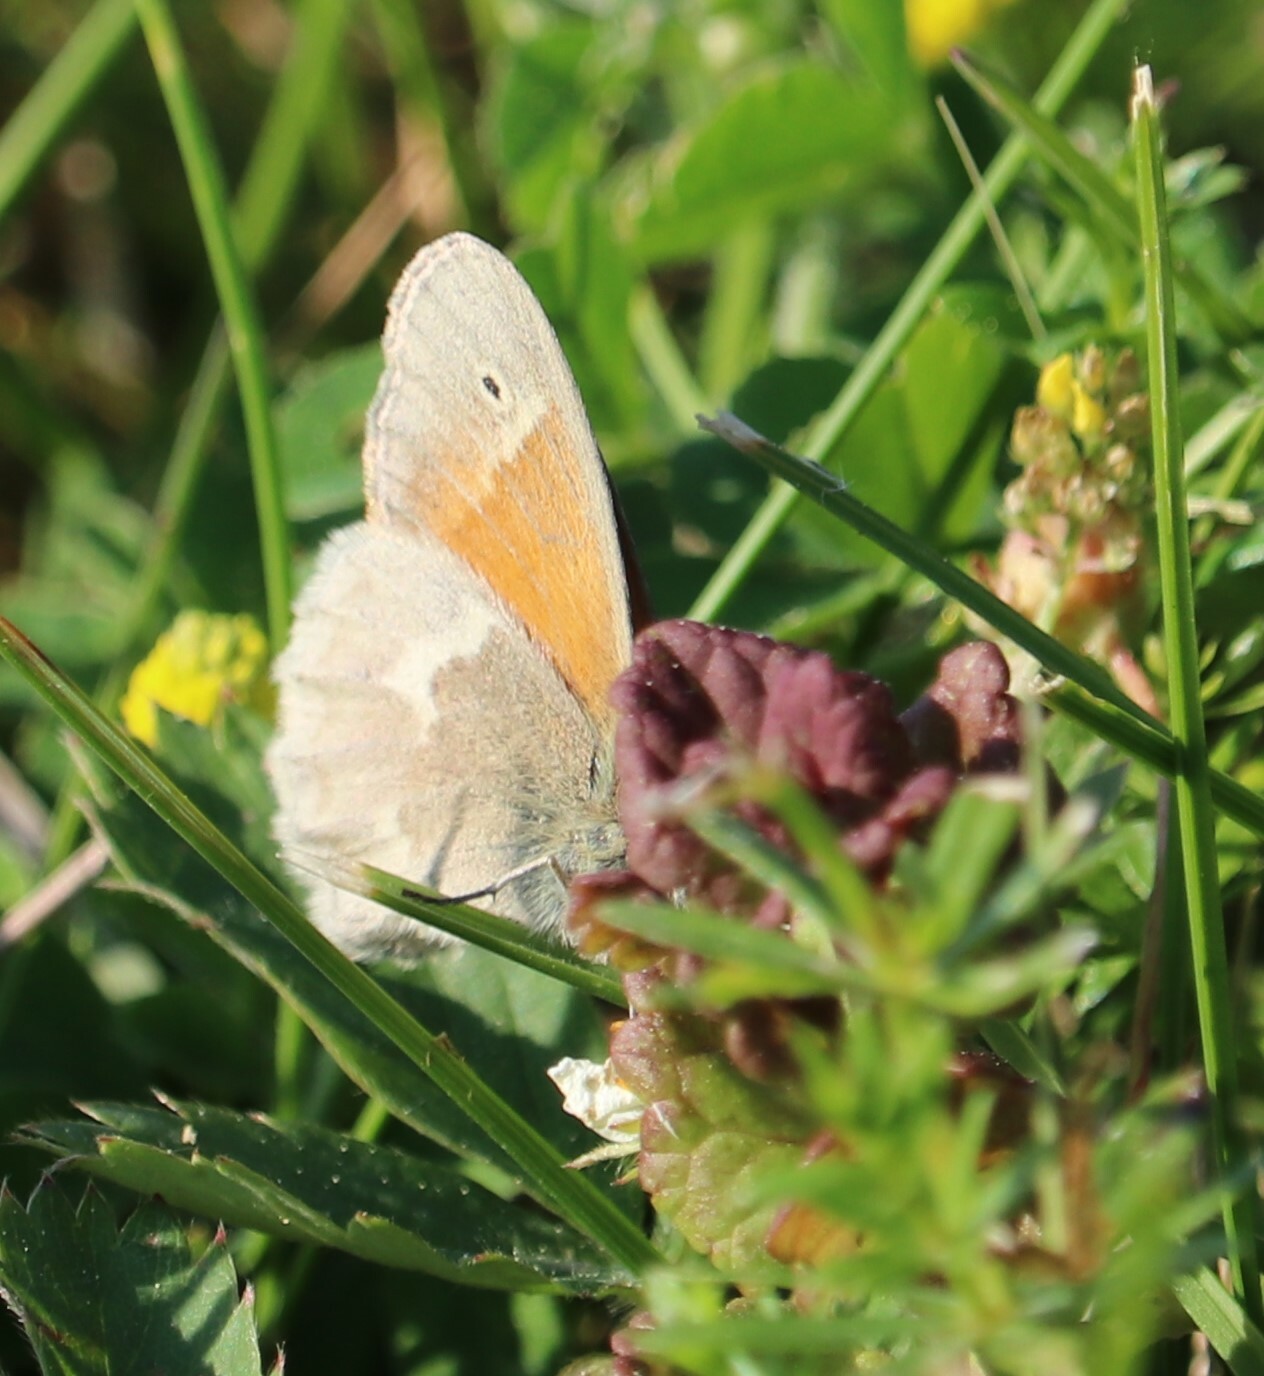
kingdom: Animalia
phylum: Arthropoda
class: Insecta
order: Lepidoptera
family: Nymphalidae
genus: Coenonympha
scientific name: Coenonympha california
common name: Common ringlet
